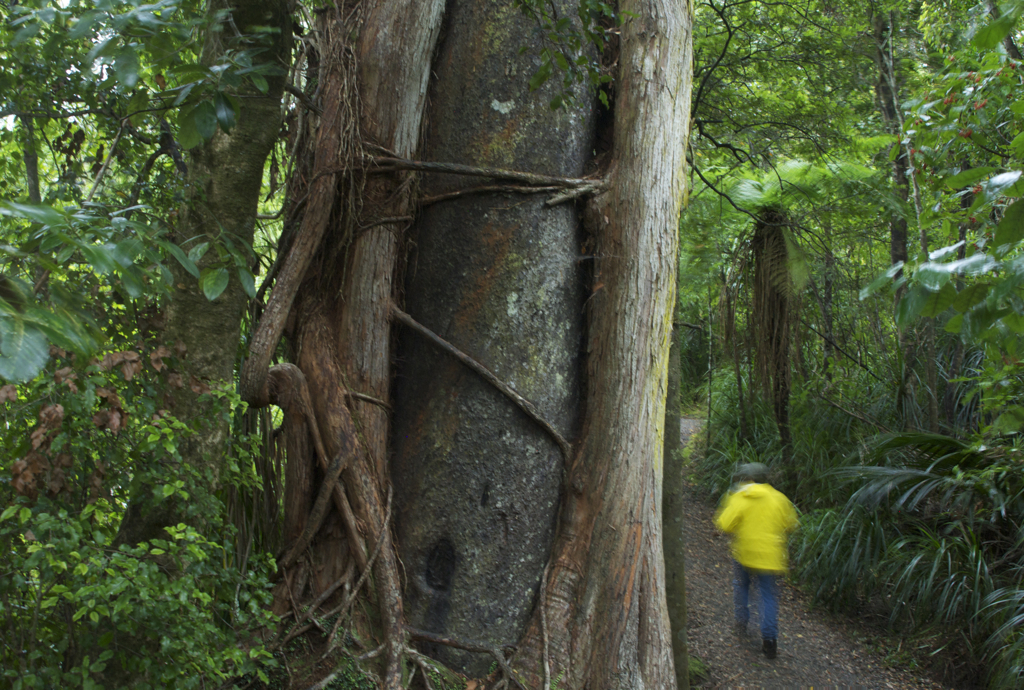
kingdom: Plantae
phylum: Tracheophyta
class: Magnoliopsida
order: Myrtales
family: Myrtaceae
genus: Metrosideros
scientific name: Metrosideros robusta
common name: Northern rata
